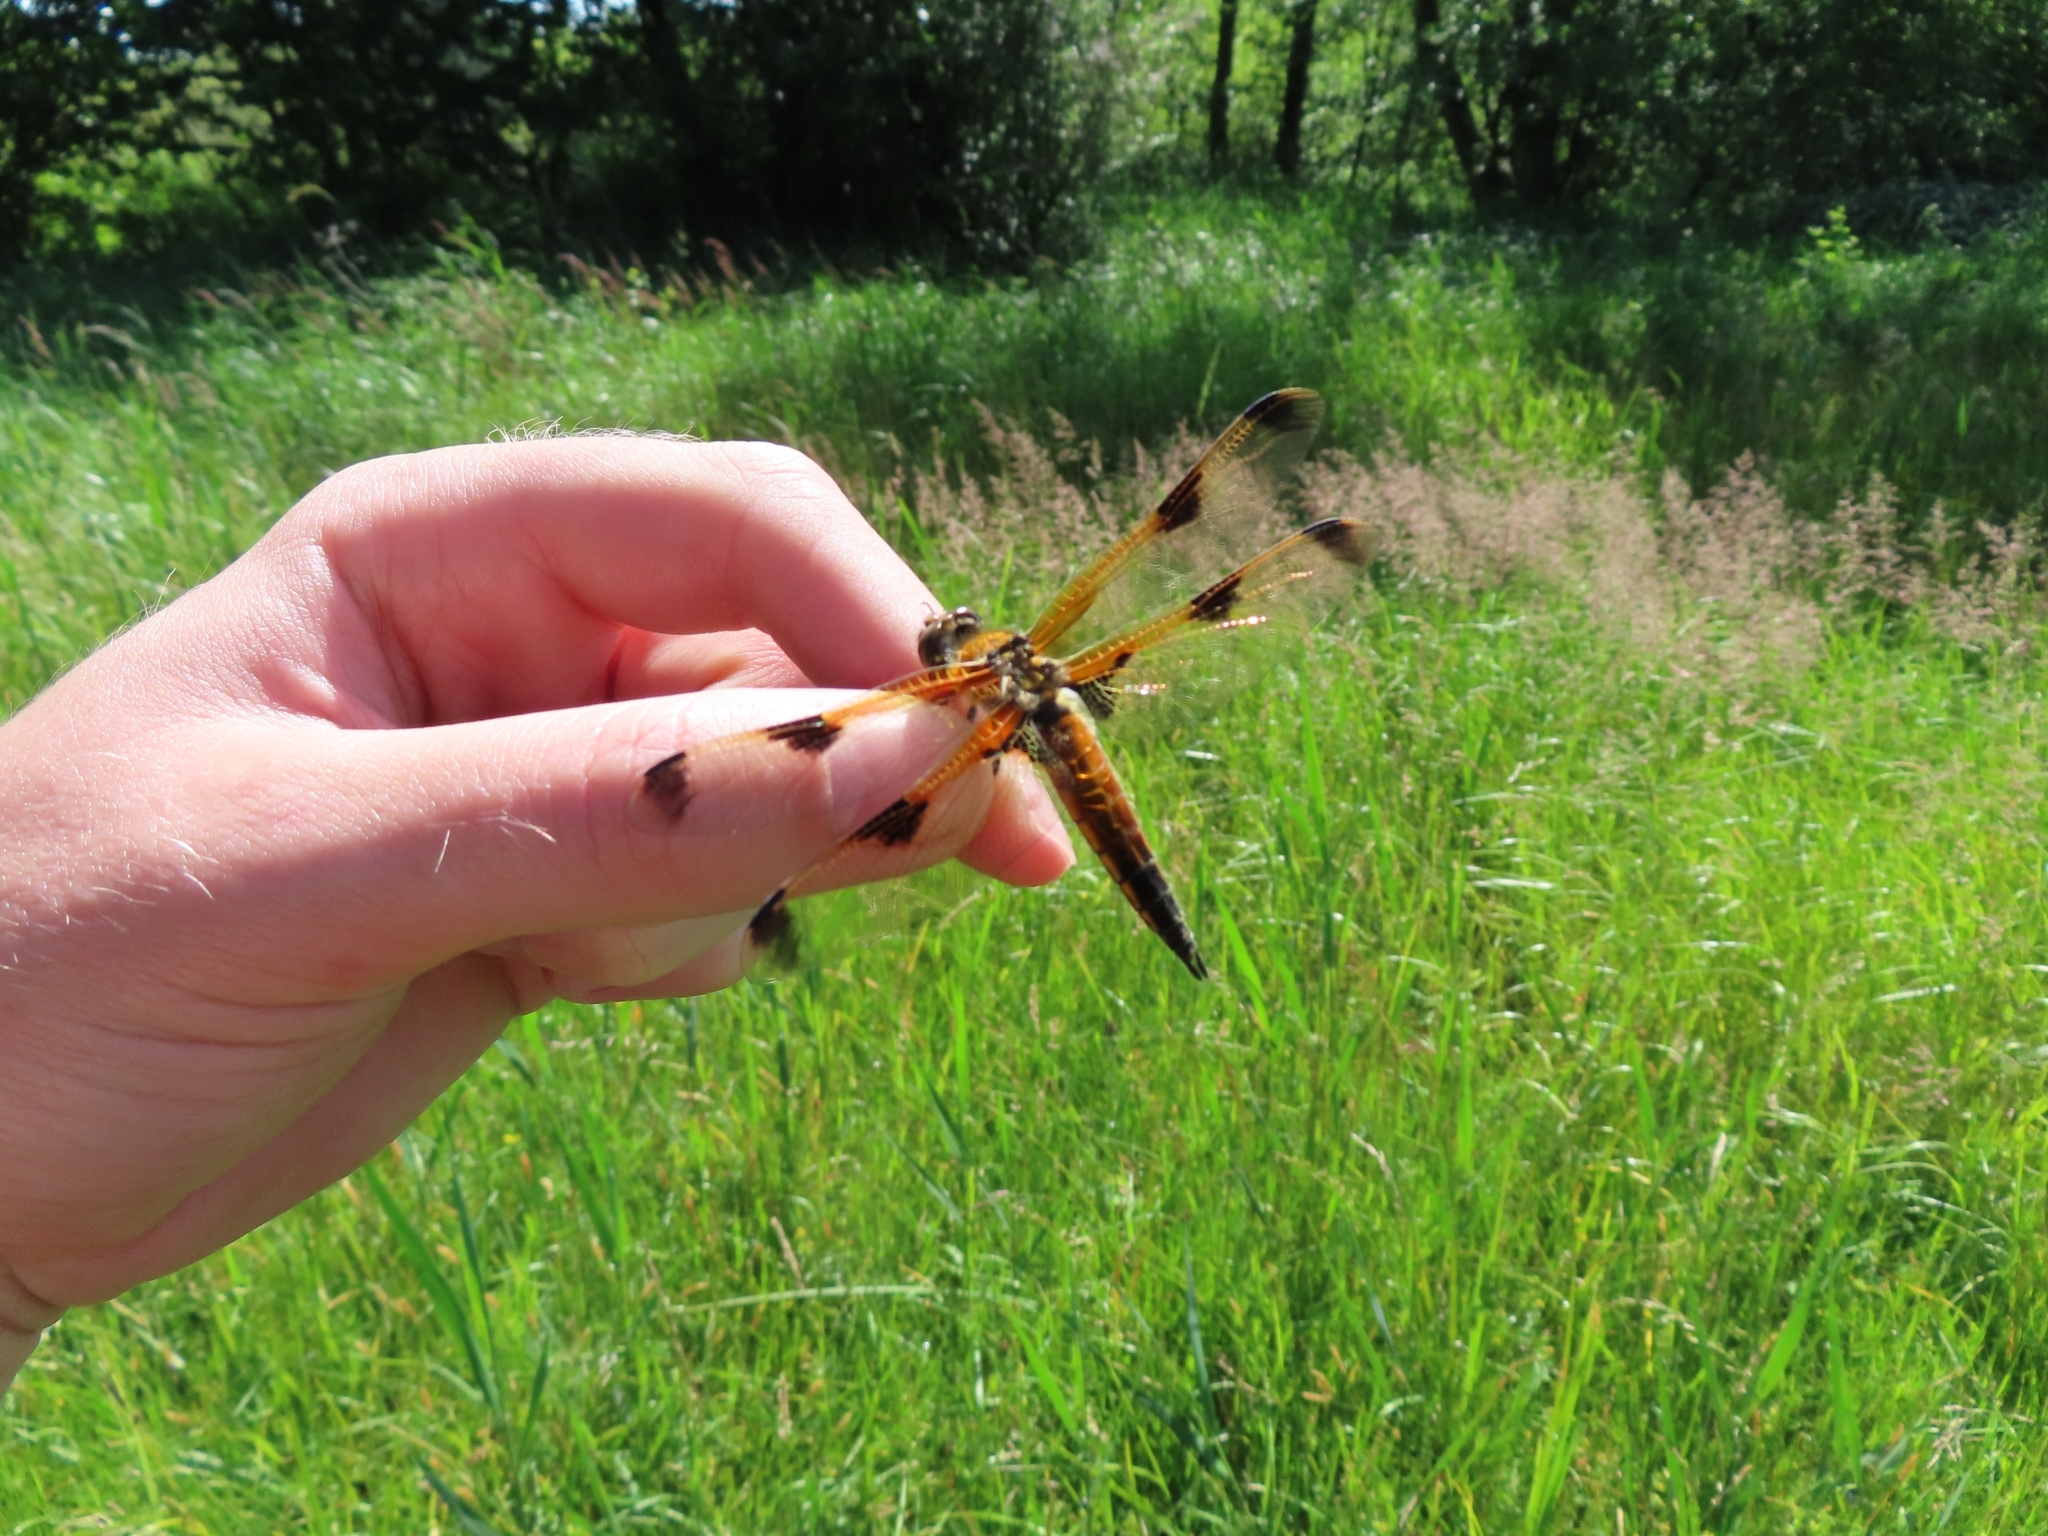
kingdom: Animalia
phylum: Arthropoda
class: Insecta
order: Odonata
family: Libellulidae
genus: Libellula
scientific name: Libellula quadrimaculata
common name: Four-spotted chaser
